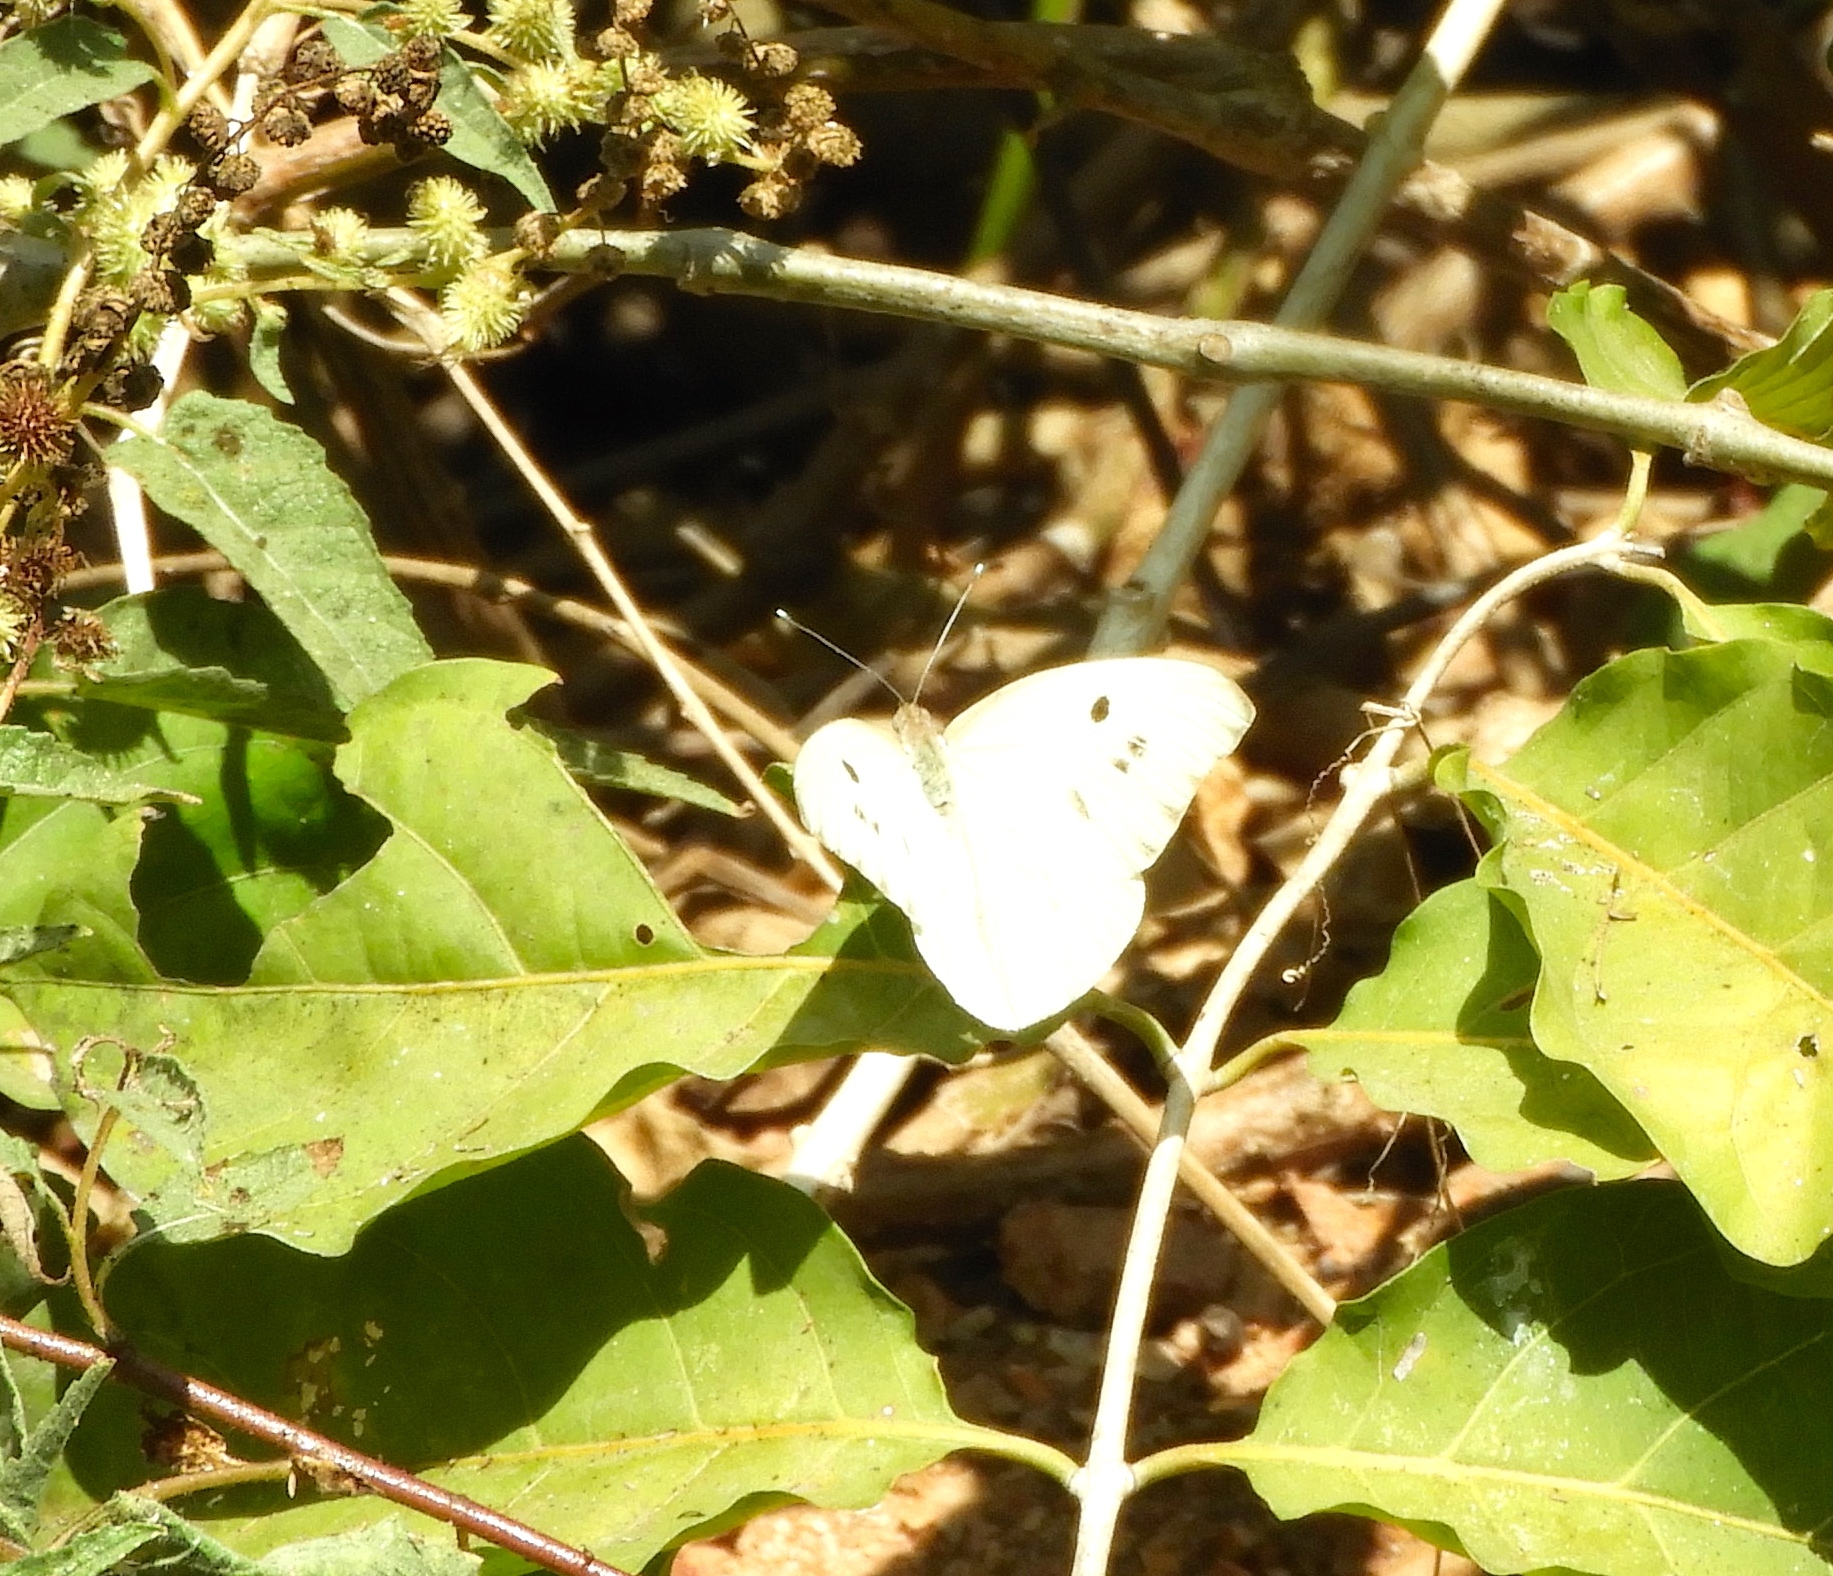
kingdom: Animalia
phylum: Arthropoda
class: Insecta
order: Lepidoptera
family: Pieridae
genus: Ganyra
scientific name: Ganyra josephina
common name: Giant white
